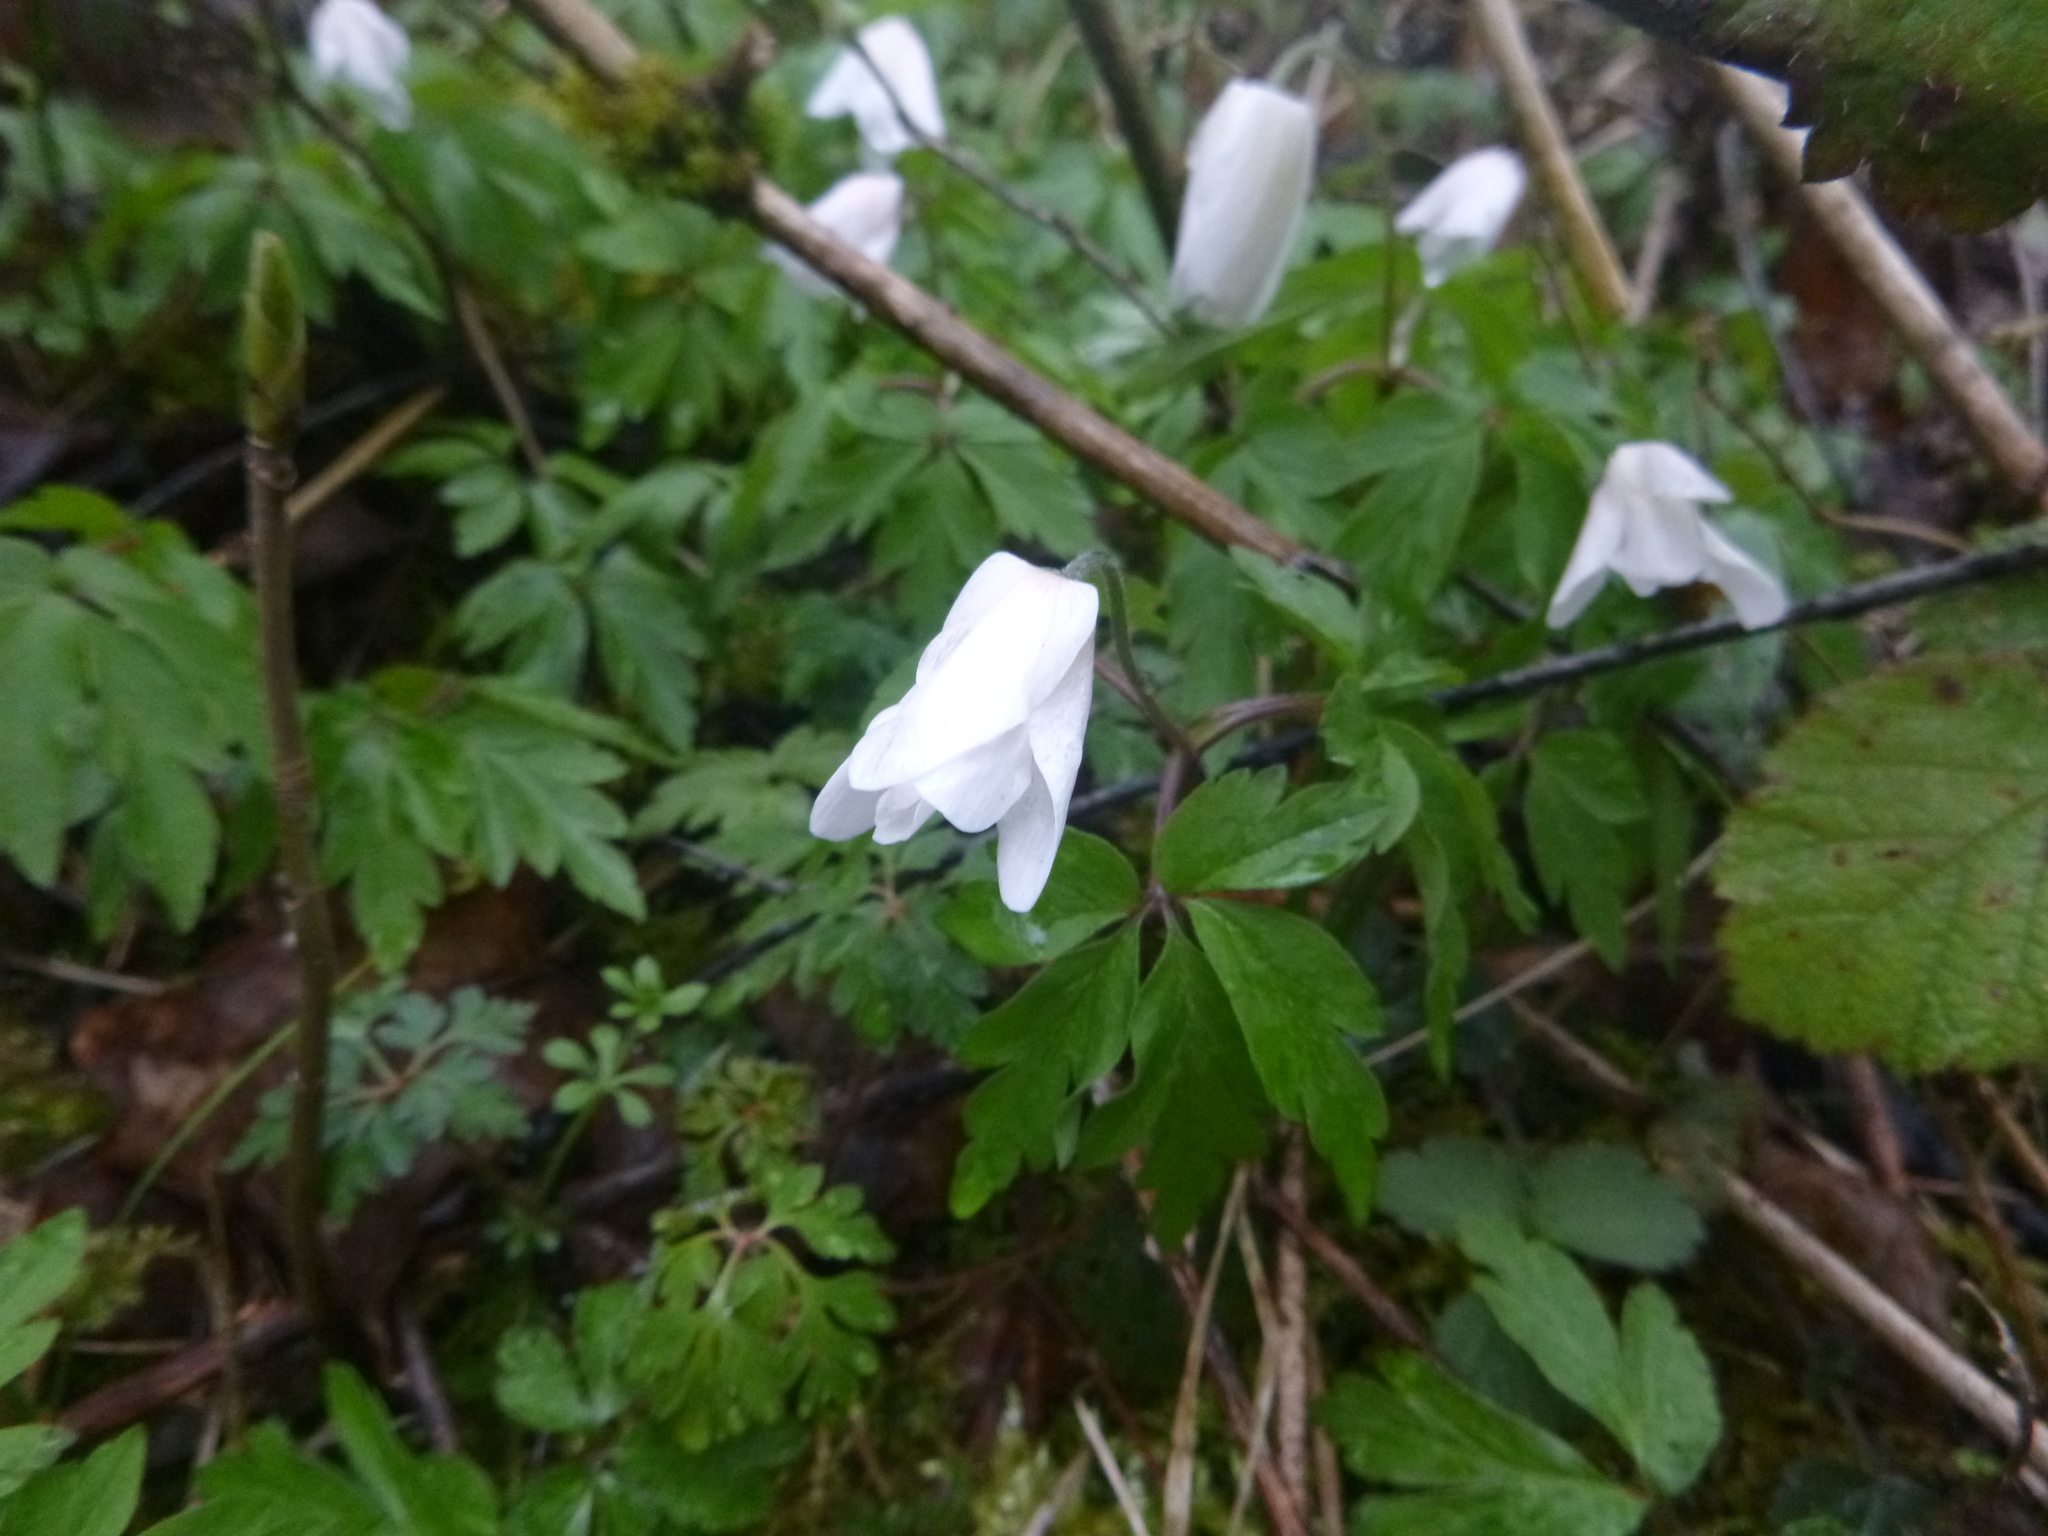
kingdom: Plantae
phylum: Tracheophyta
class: Magnoliopsida
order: Ranunculales
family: Ranunculaceae
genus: Anemone
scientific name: Anemone nemorosa
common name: Wood anemone
